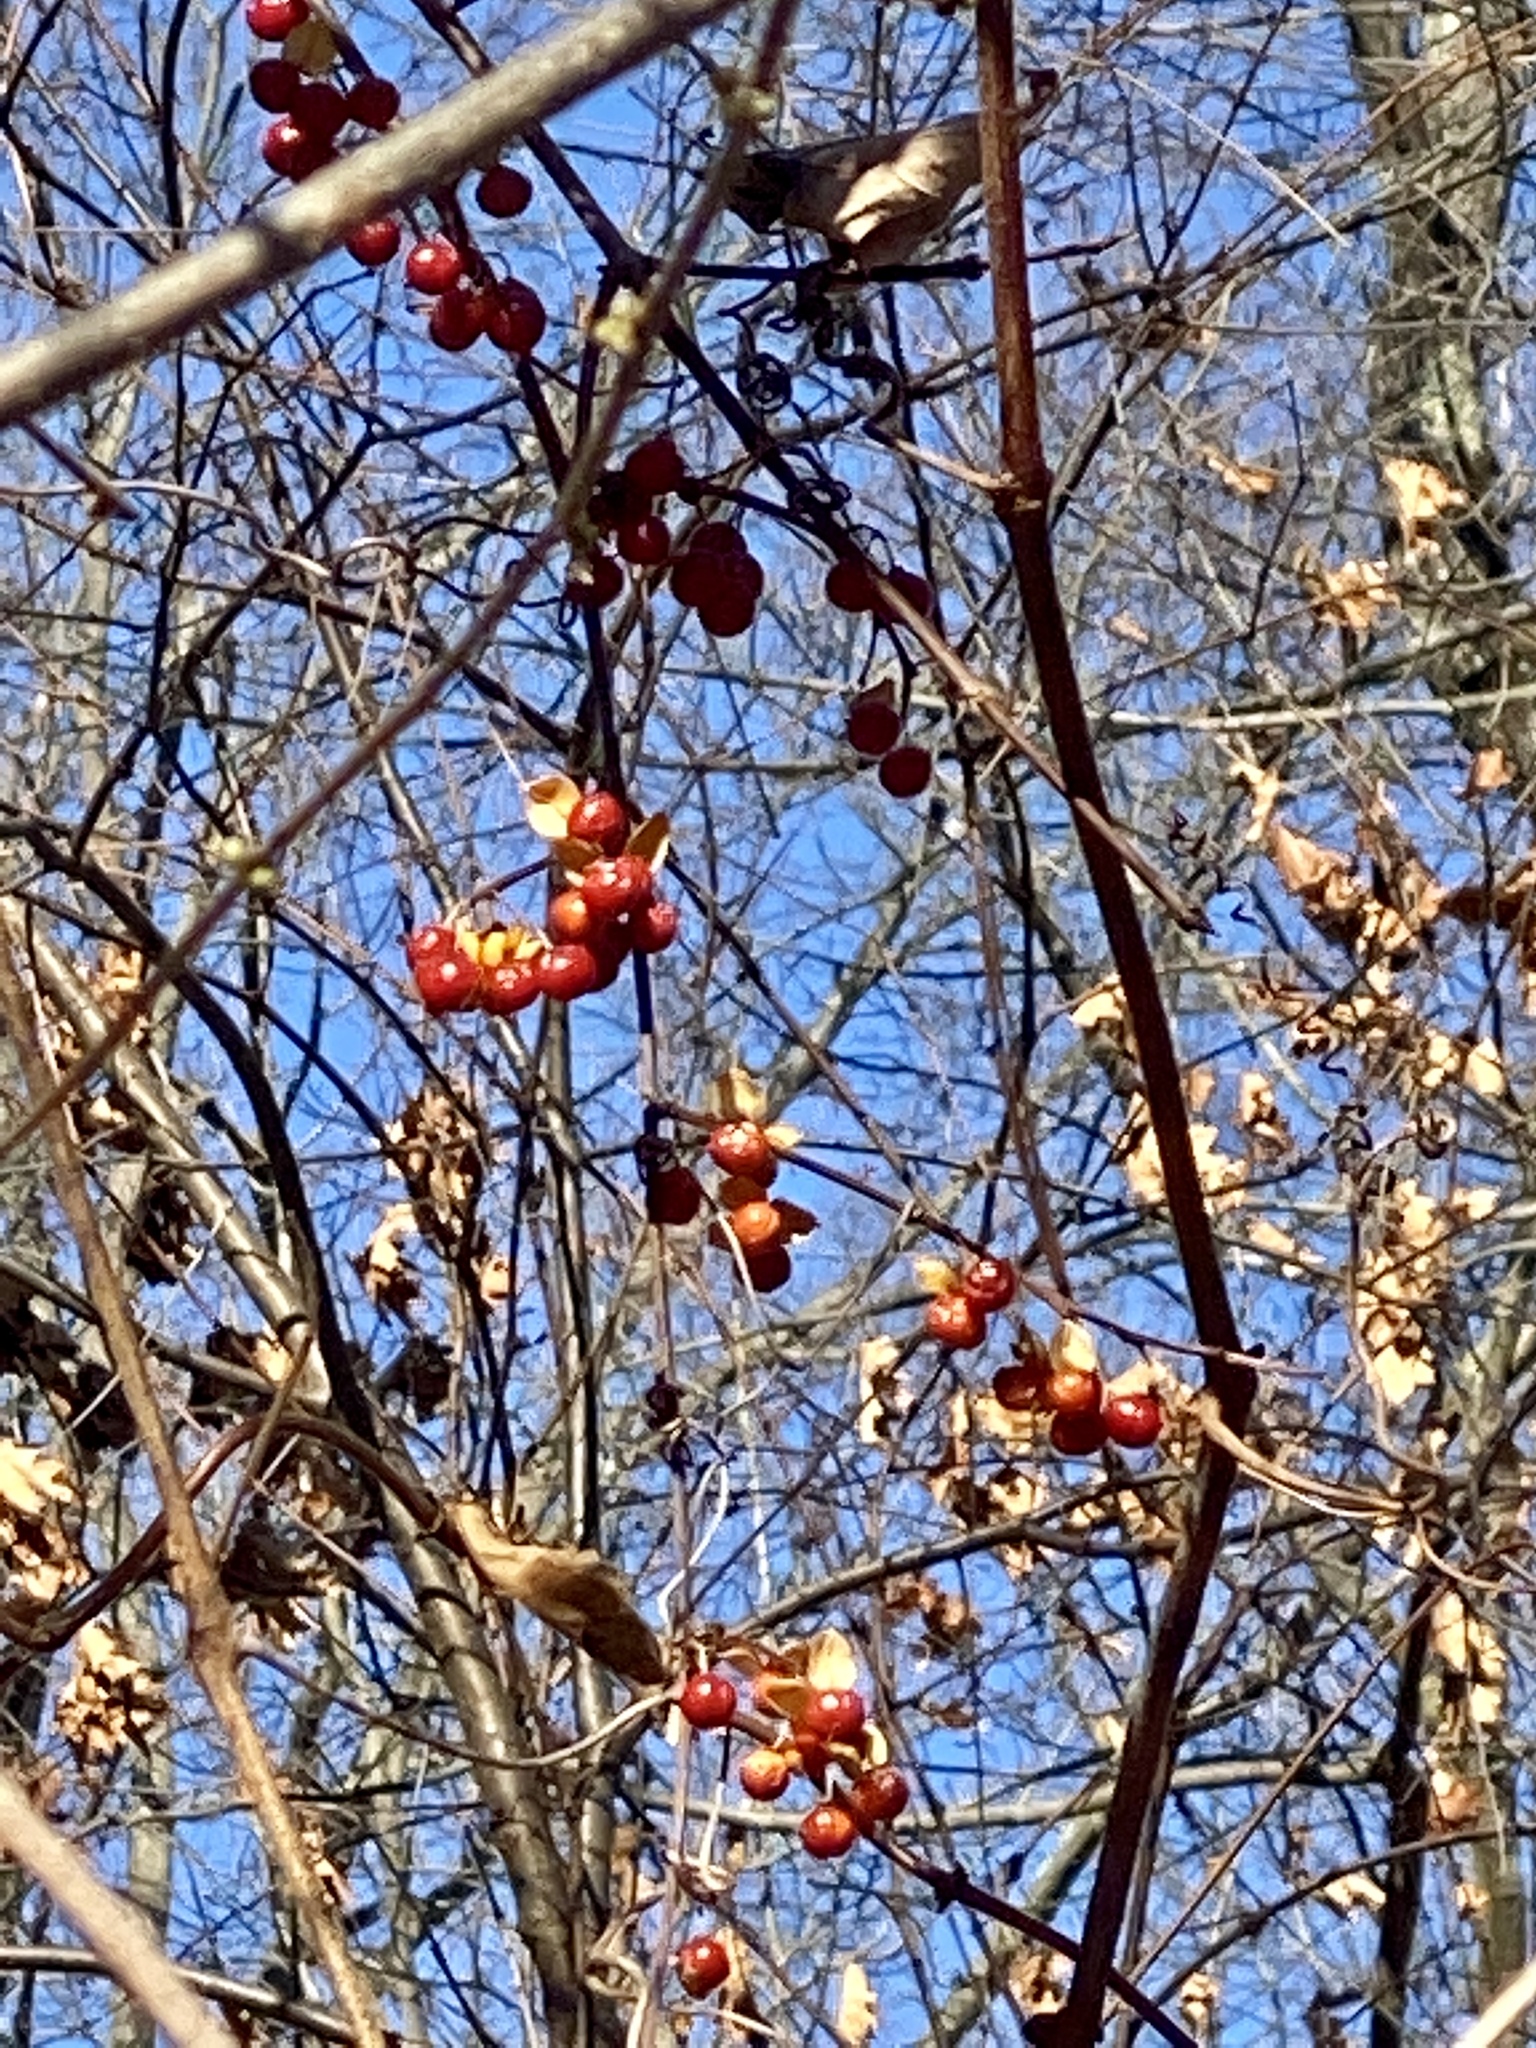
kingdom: Plantae
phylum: Tracheophyta
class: Magnoliopsida
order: Celastrales
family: Celastraceae
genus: Celastrus
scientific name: Celastrus orbiculatus
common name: Oriental bittersweet
